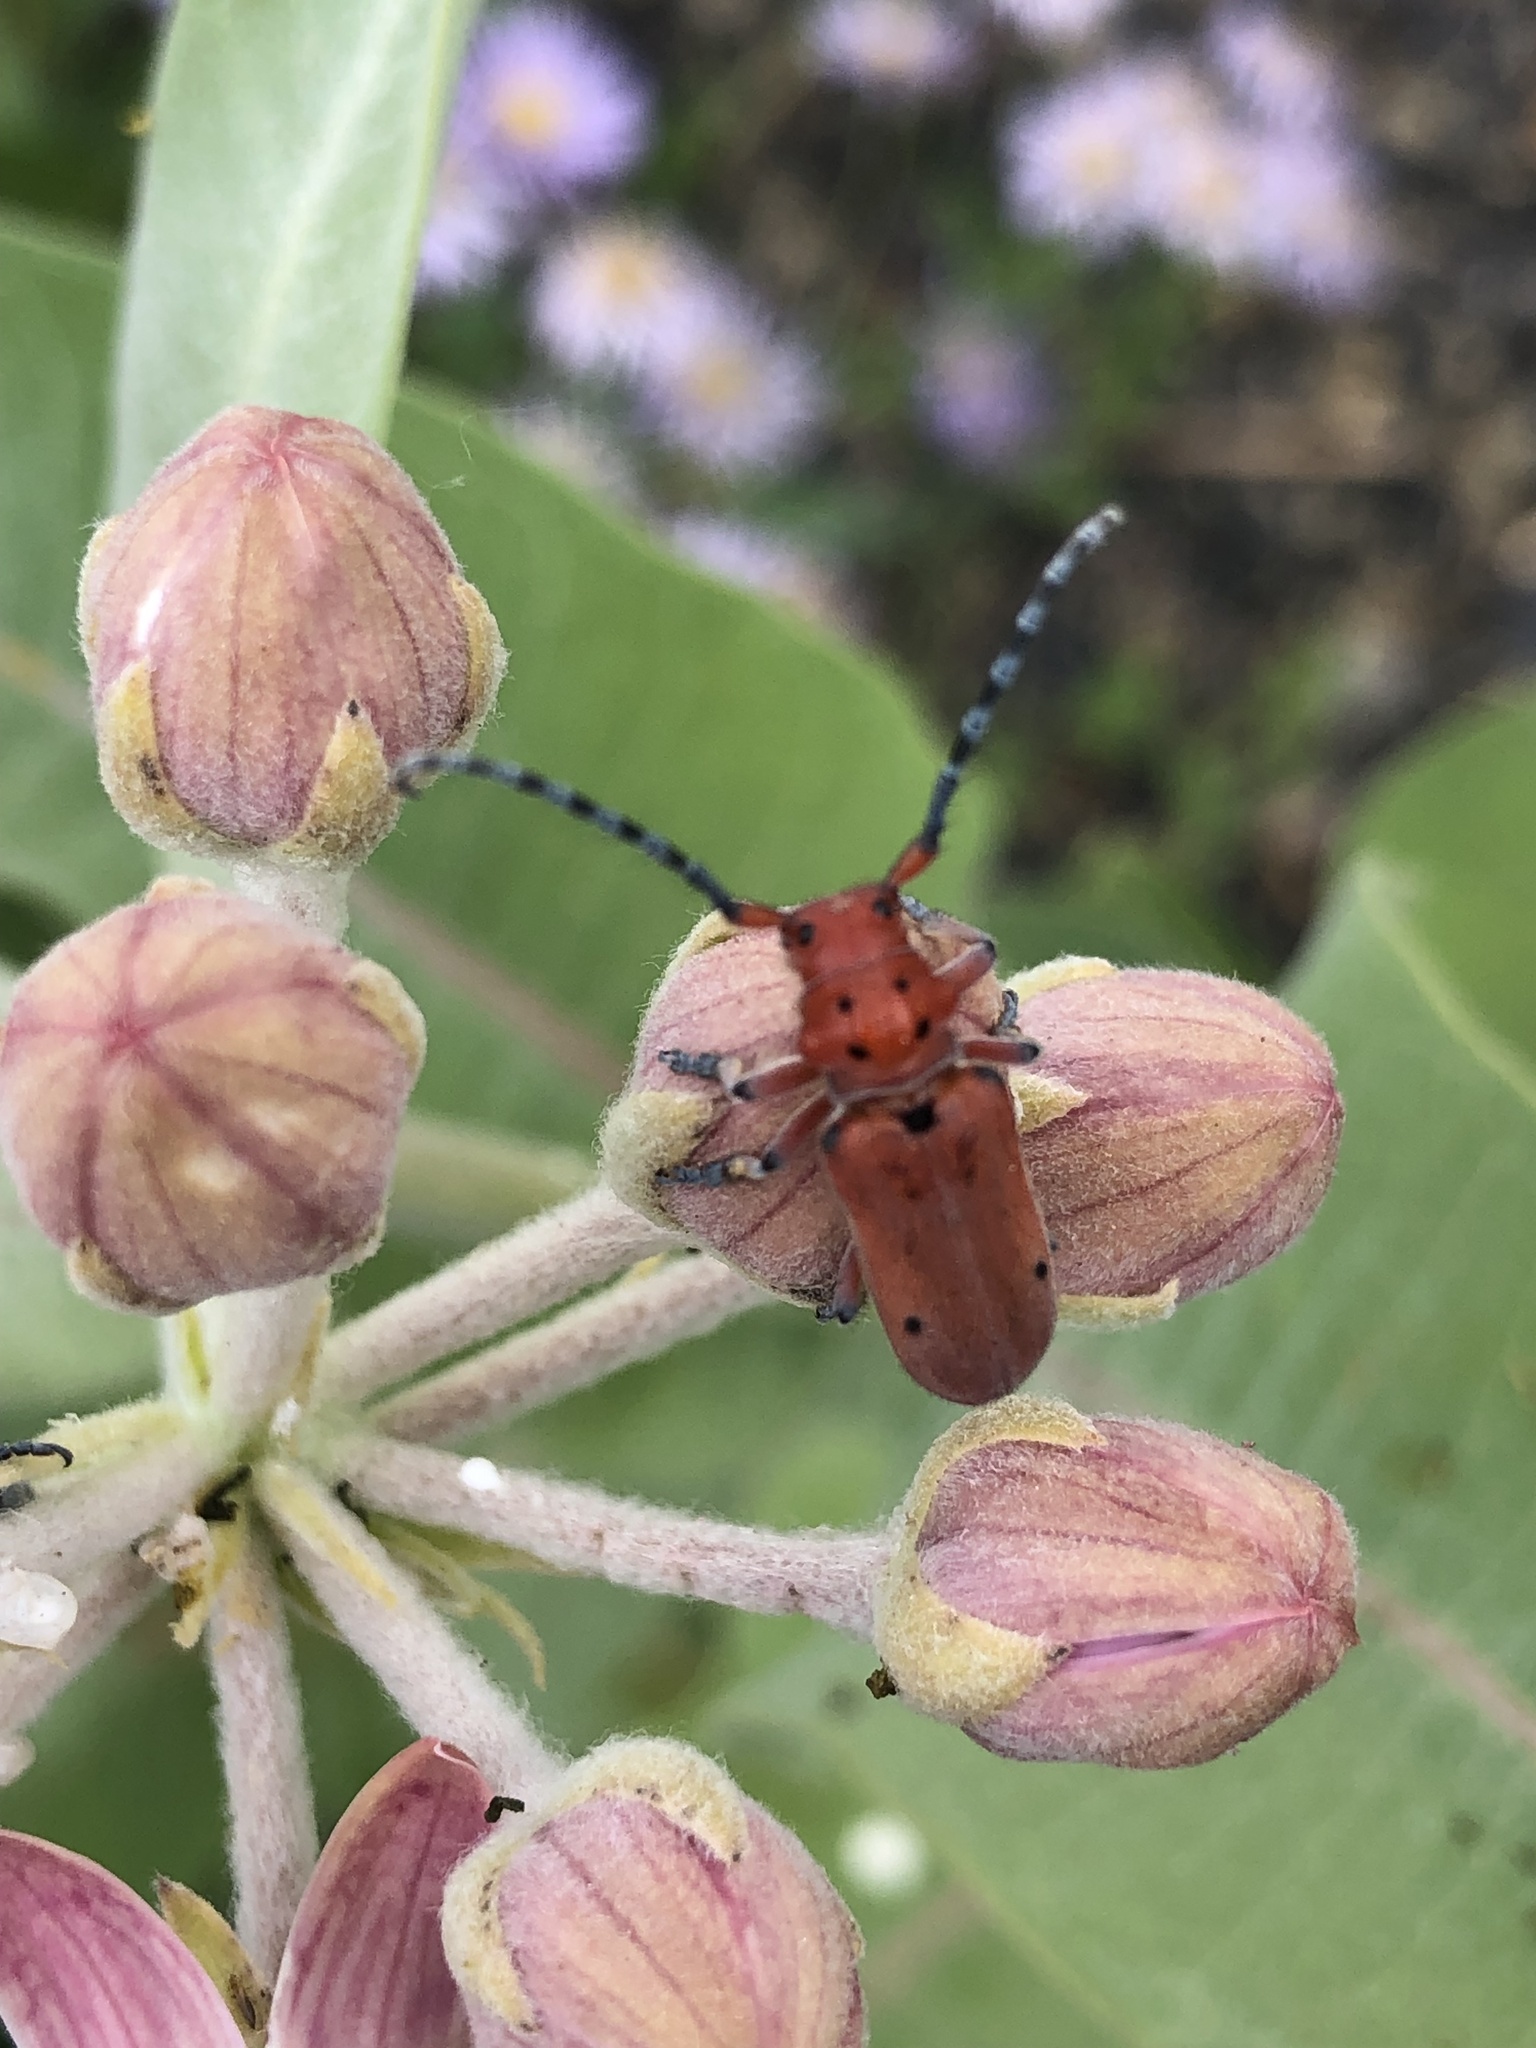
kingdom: Animalia
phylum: Arthropoda
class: Insecta
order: Coleoptera
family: Cerambycidae
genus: Tetraopes
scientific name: Tetraopes femoratus
